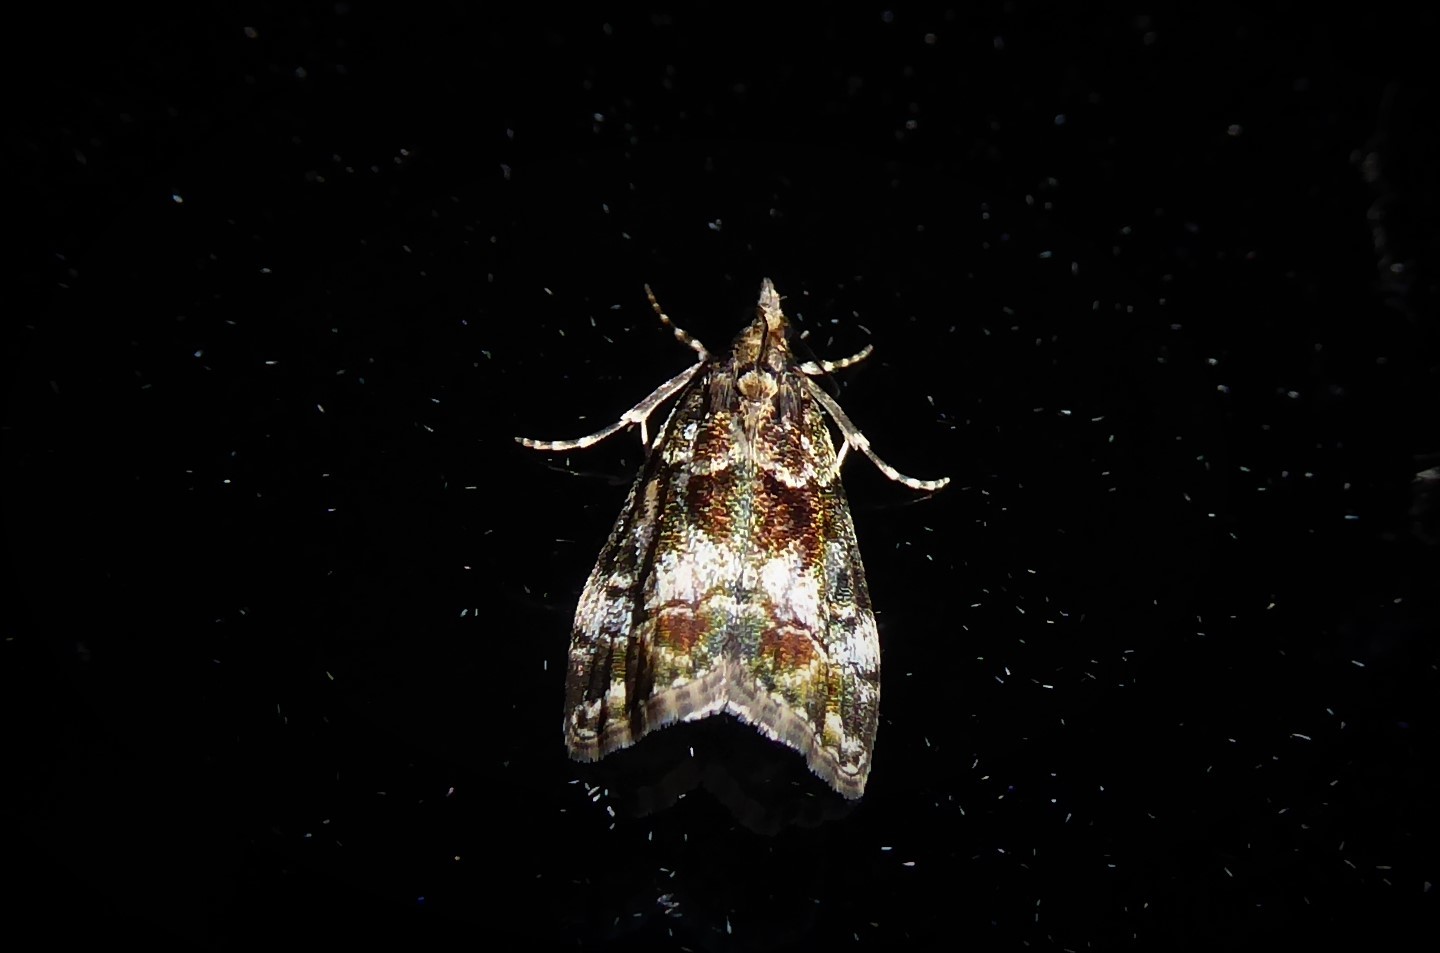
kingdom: Animalia
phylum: Arthropoda
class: Insecta
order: Lepidoptera
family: Crambidae
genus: Eudonia
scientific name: Eudonia dinodes
